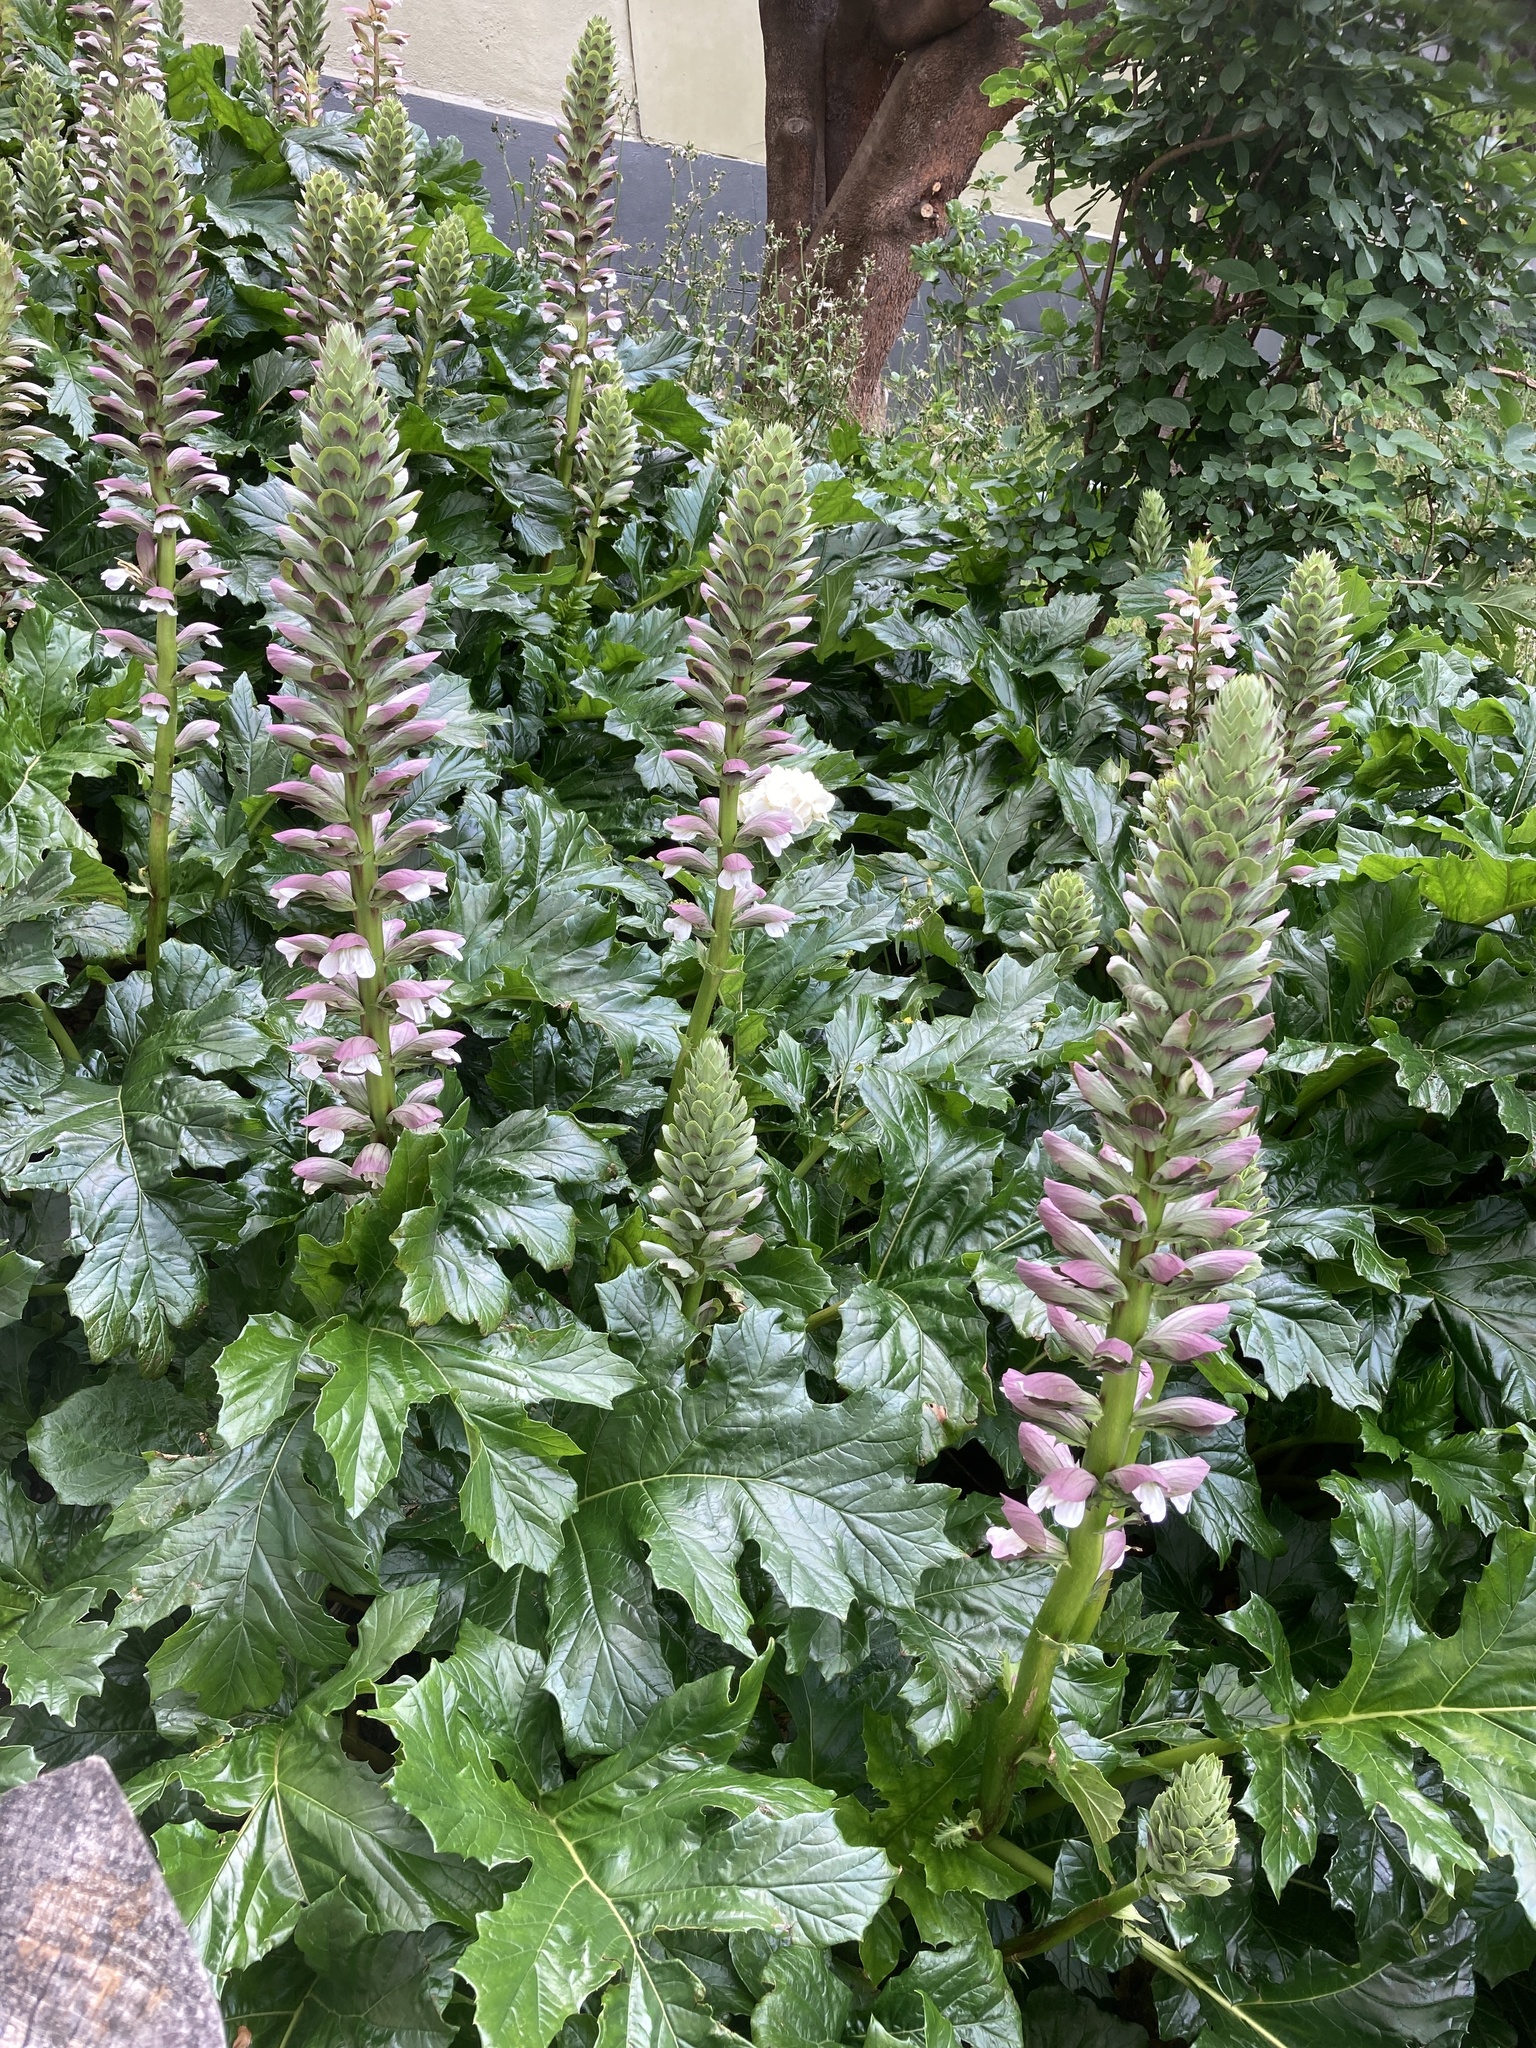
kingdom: Plantae
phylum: Tracheophyta
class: Magnoliopsida
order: Lamiales
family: Acanthaceae
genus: Acanthus
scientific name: Acanthus mollis
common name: Bear's-breech
